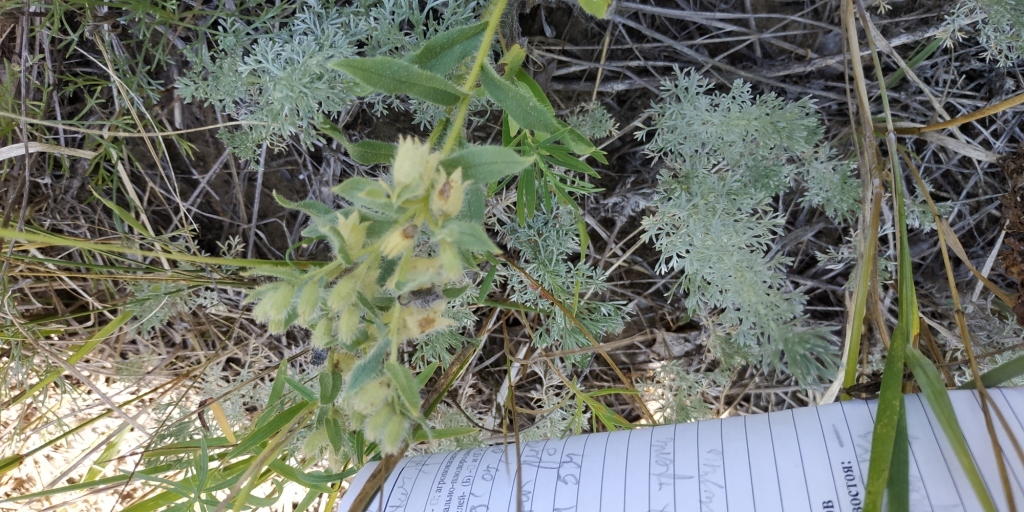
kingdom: Plantae
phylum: Tracheophyta
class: Magnoliopsida
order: Boraginales
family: Boraginaceae
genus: Nonea
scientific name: Nonea pulla
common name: Brown nonea
